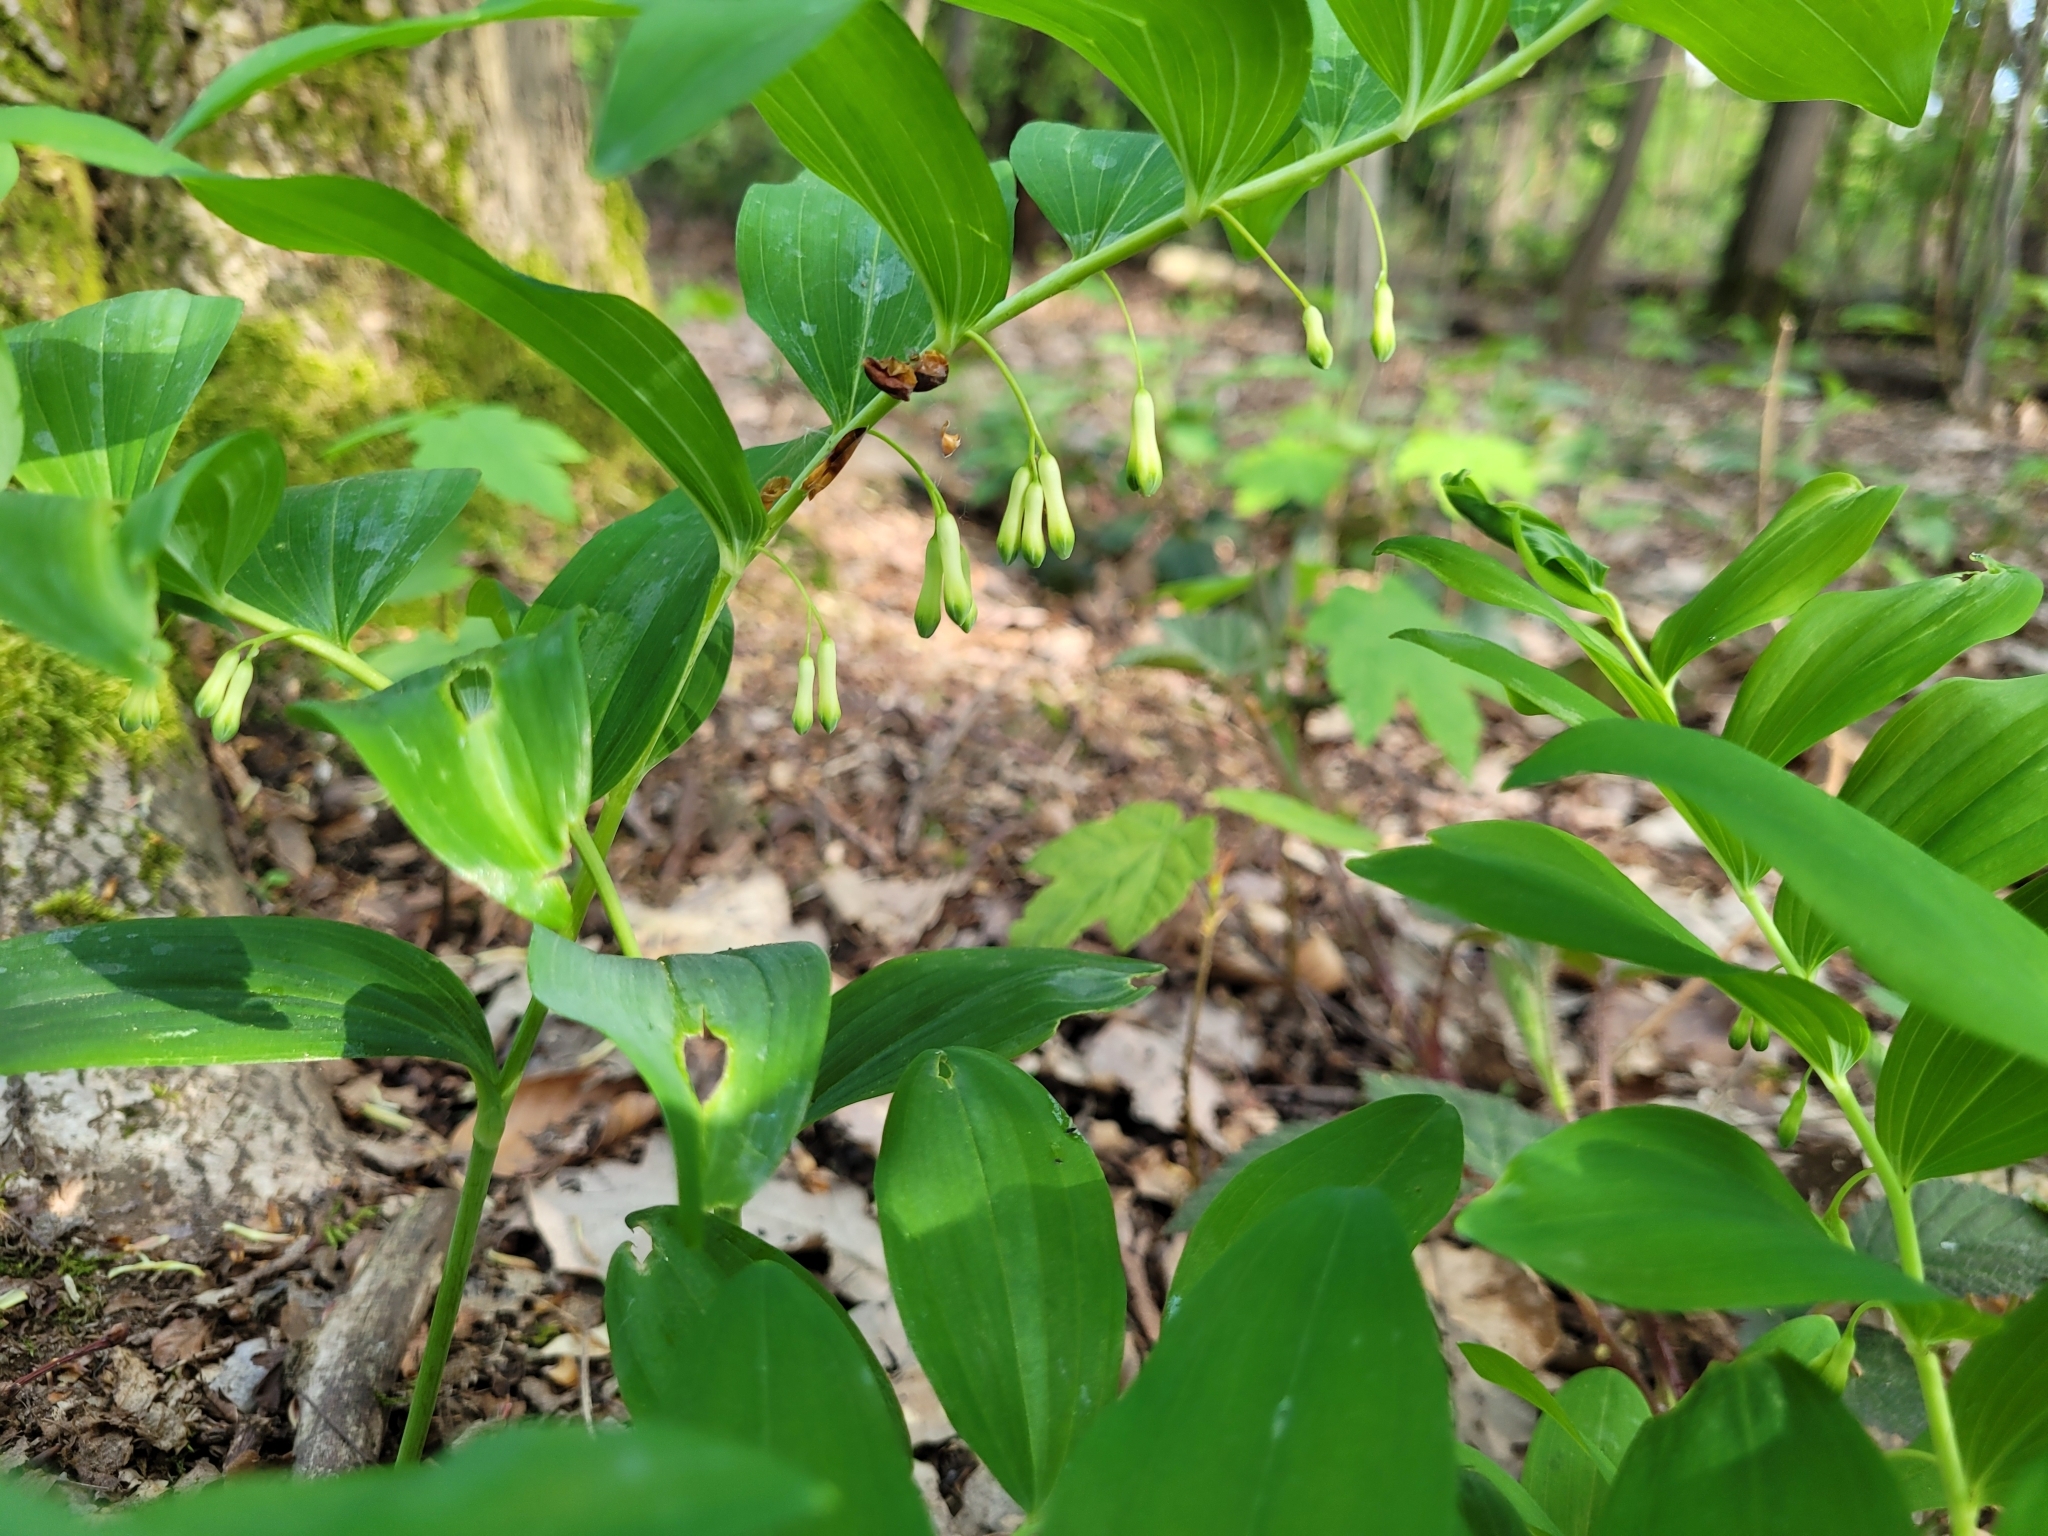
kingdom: Plantae
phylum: Tracheophyta
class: Liliopsida
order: Asparagales
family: Asparagaceae
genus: Polygonatum
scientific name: Polygonatum multiflorum
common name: Solomon's-seal
